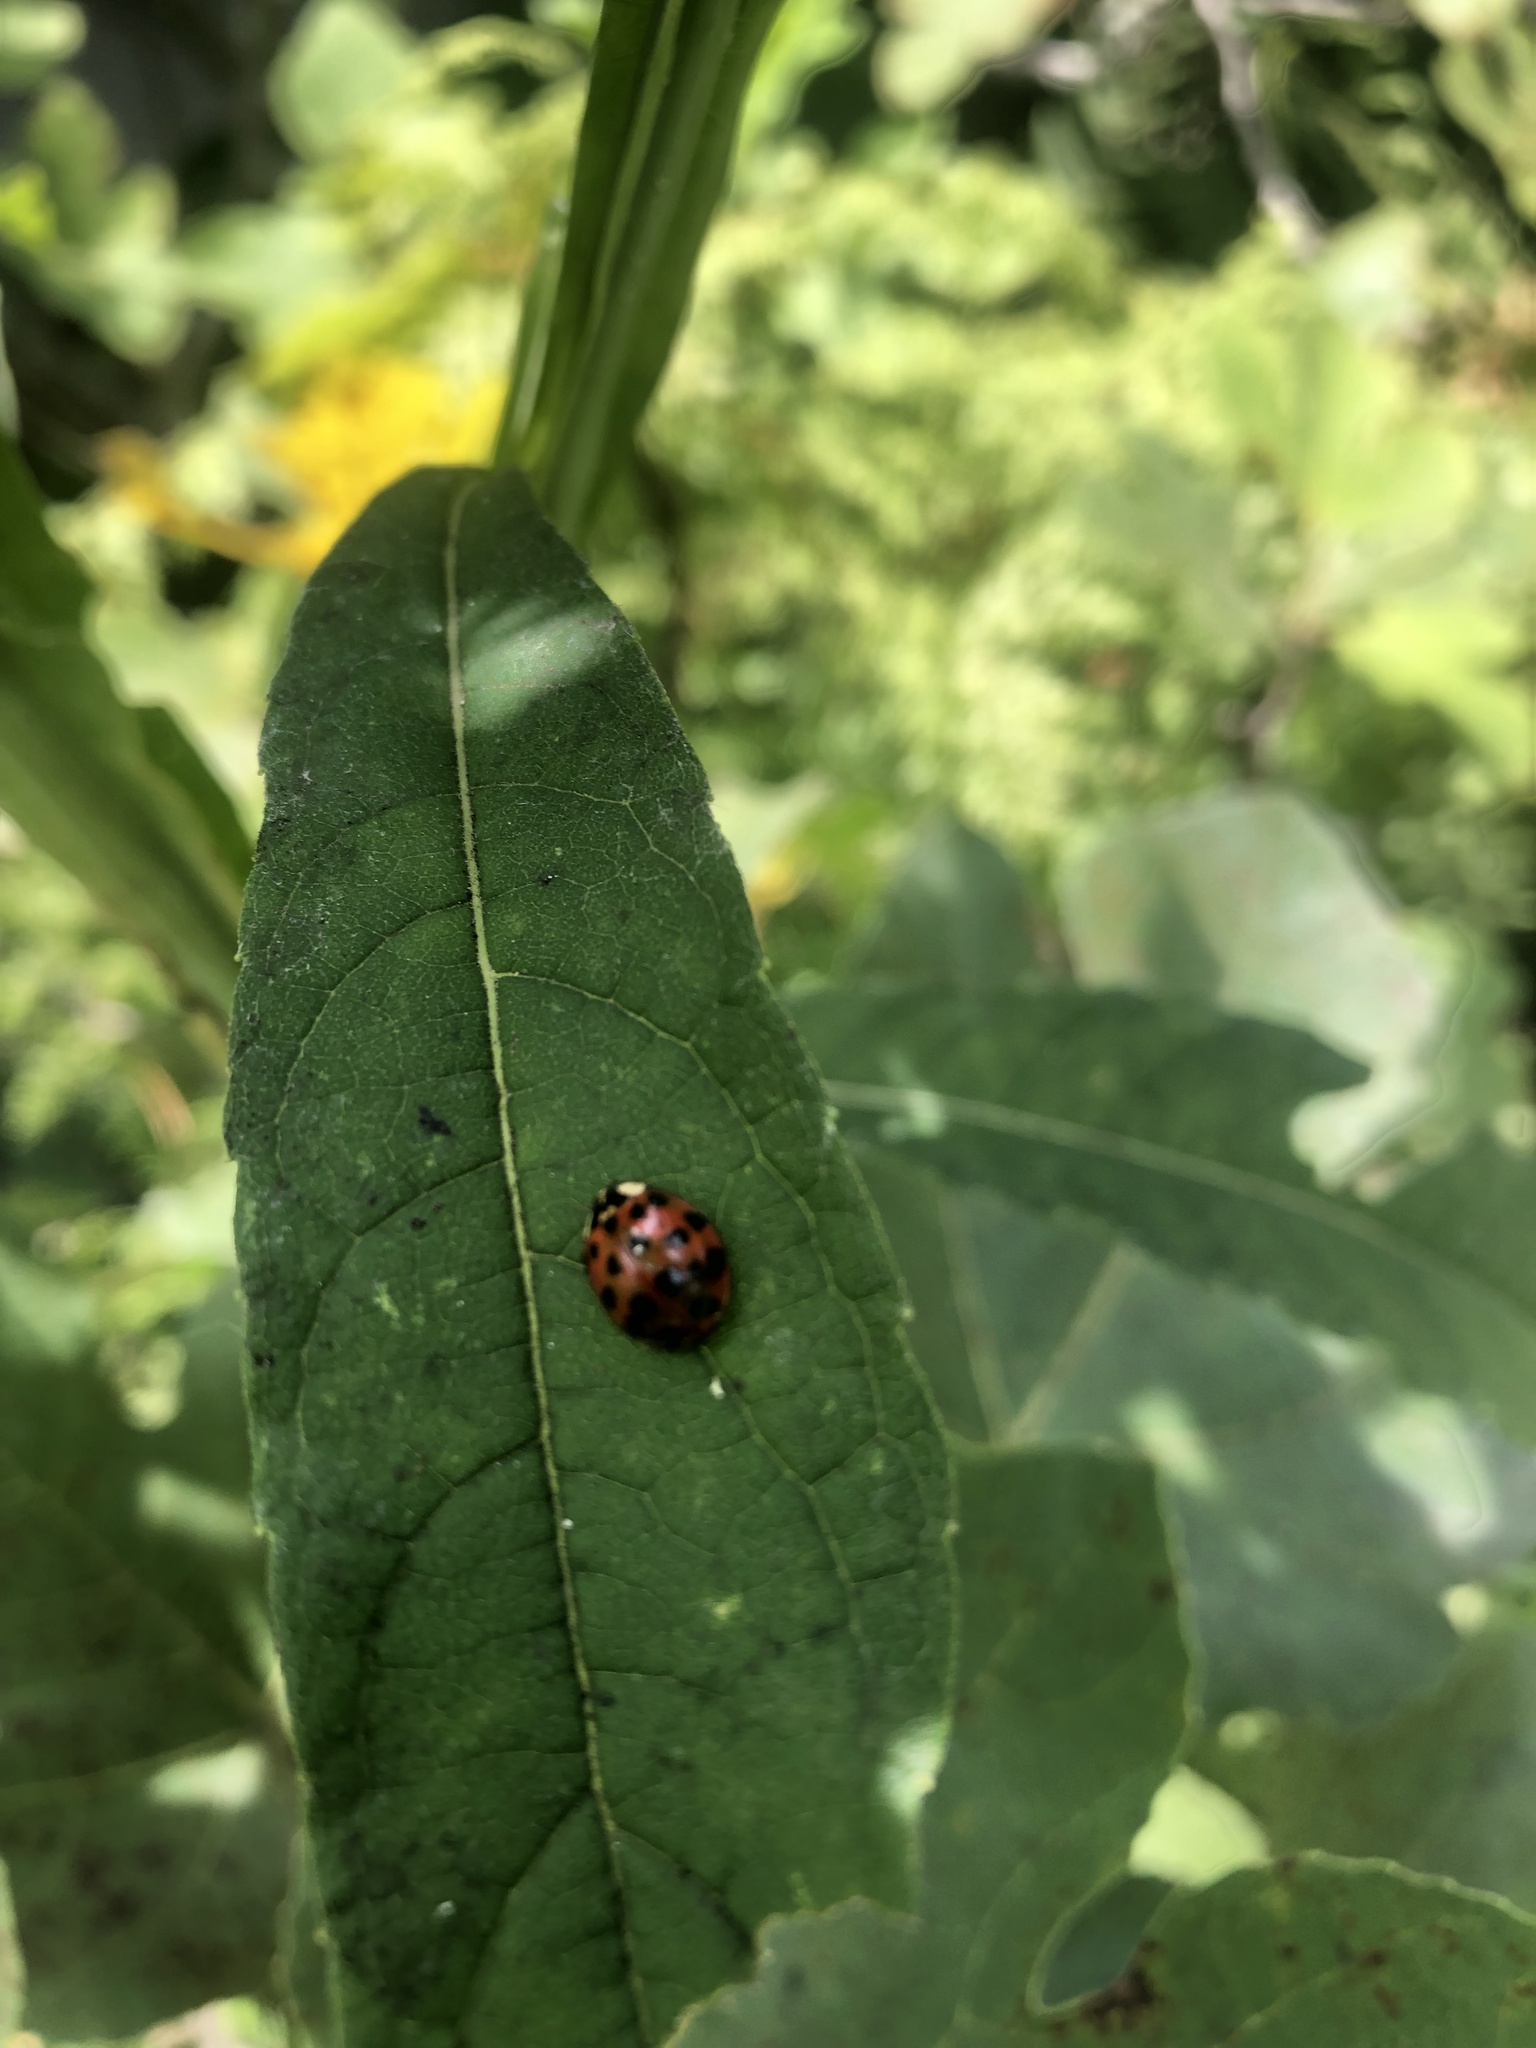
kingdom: Animalia
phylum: Arthropoda
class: Insecta
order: Coleoptera
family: Coccinellidae
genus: Harmonia
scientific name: Harmonia axyridis
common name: Harlequin ladybird
